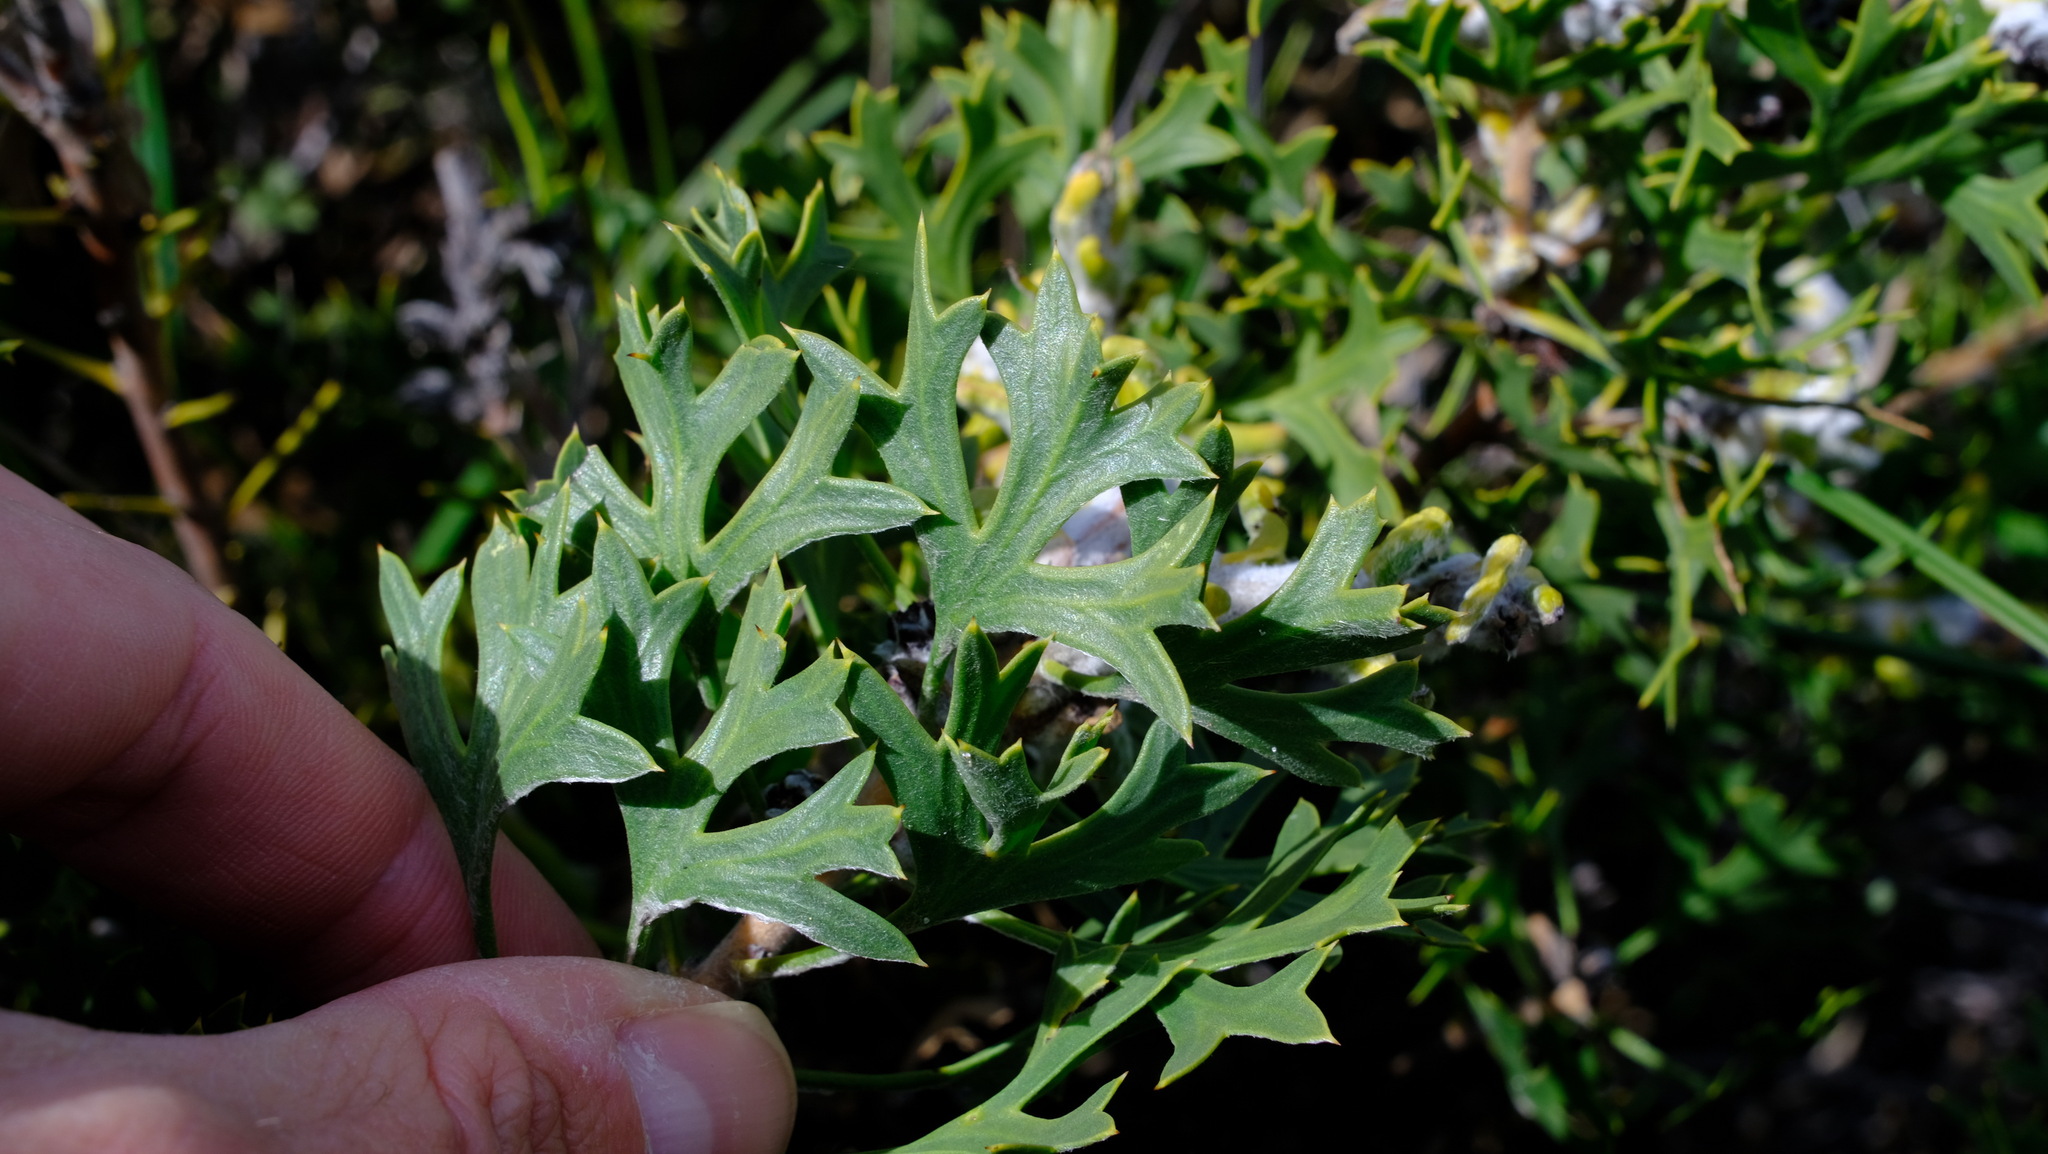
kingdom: Plantae
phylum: Tracheophyta
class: Magnoliopsida
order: Proteales
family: Proteaceae
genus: Petrophile
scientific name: Petrophile macrostachya
